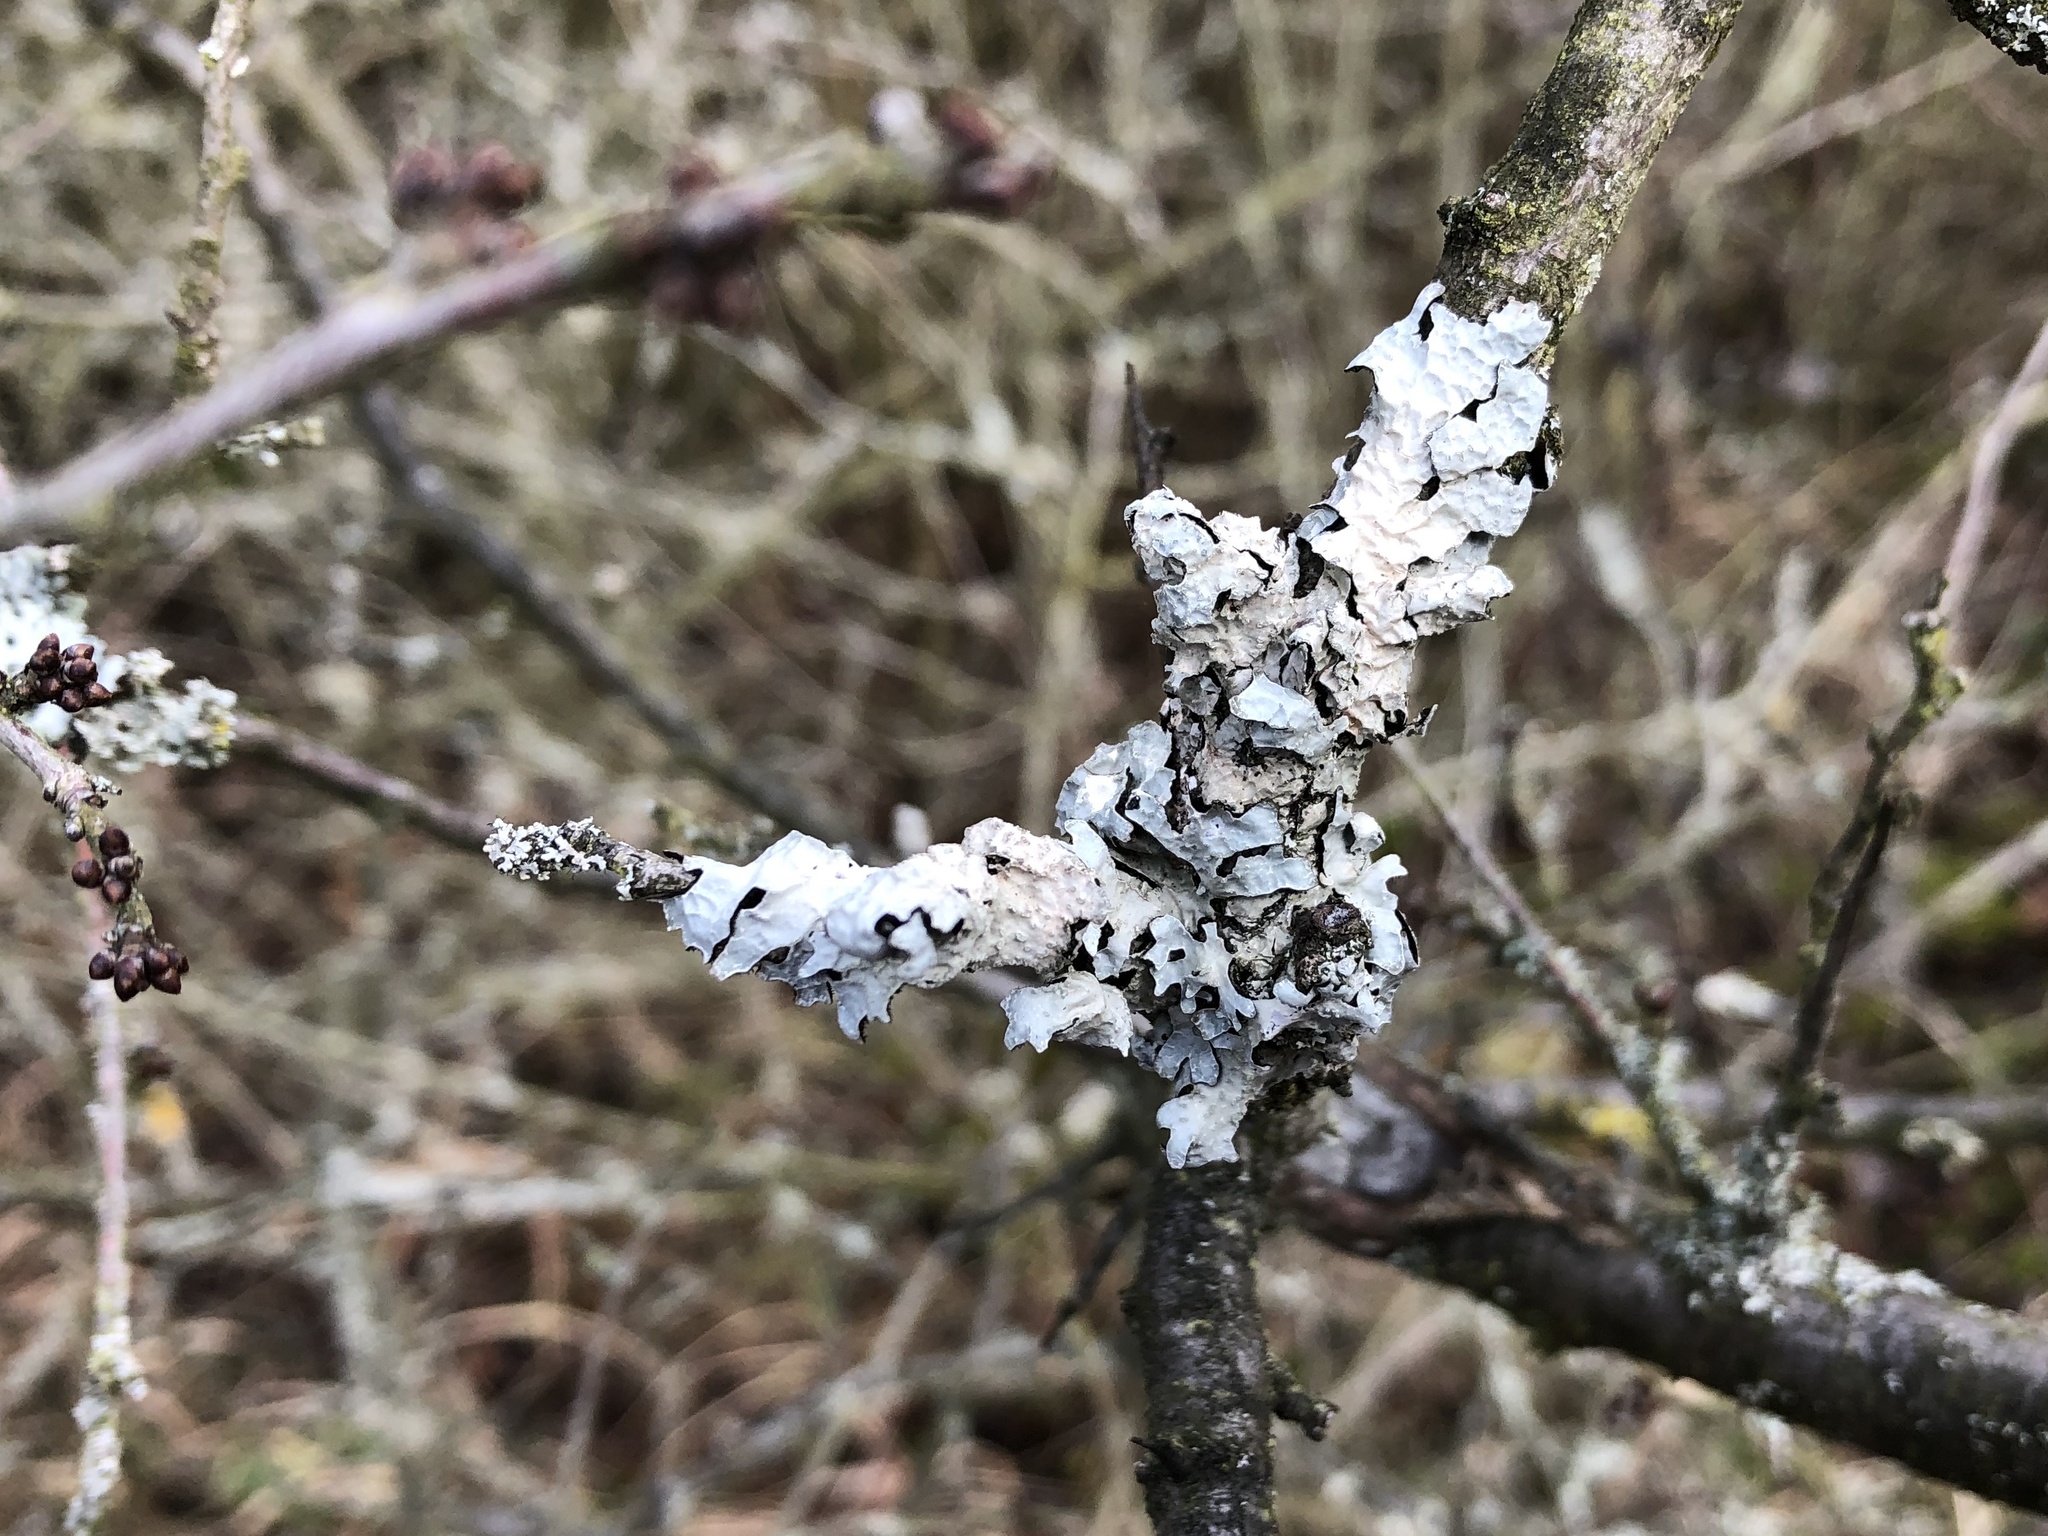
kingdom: Fungi
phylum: Ascomycota
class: Lecanoromycetes
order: Lecanorales
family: Parmeliaceae
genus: Parmelia
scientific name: Parmelia sulcata
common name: Netted shield lichen
